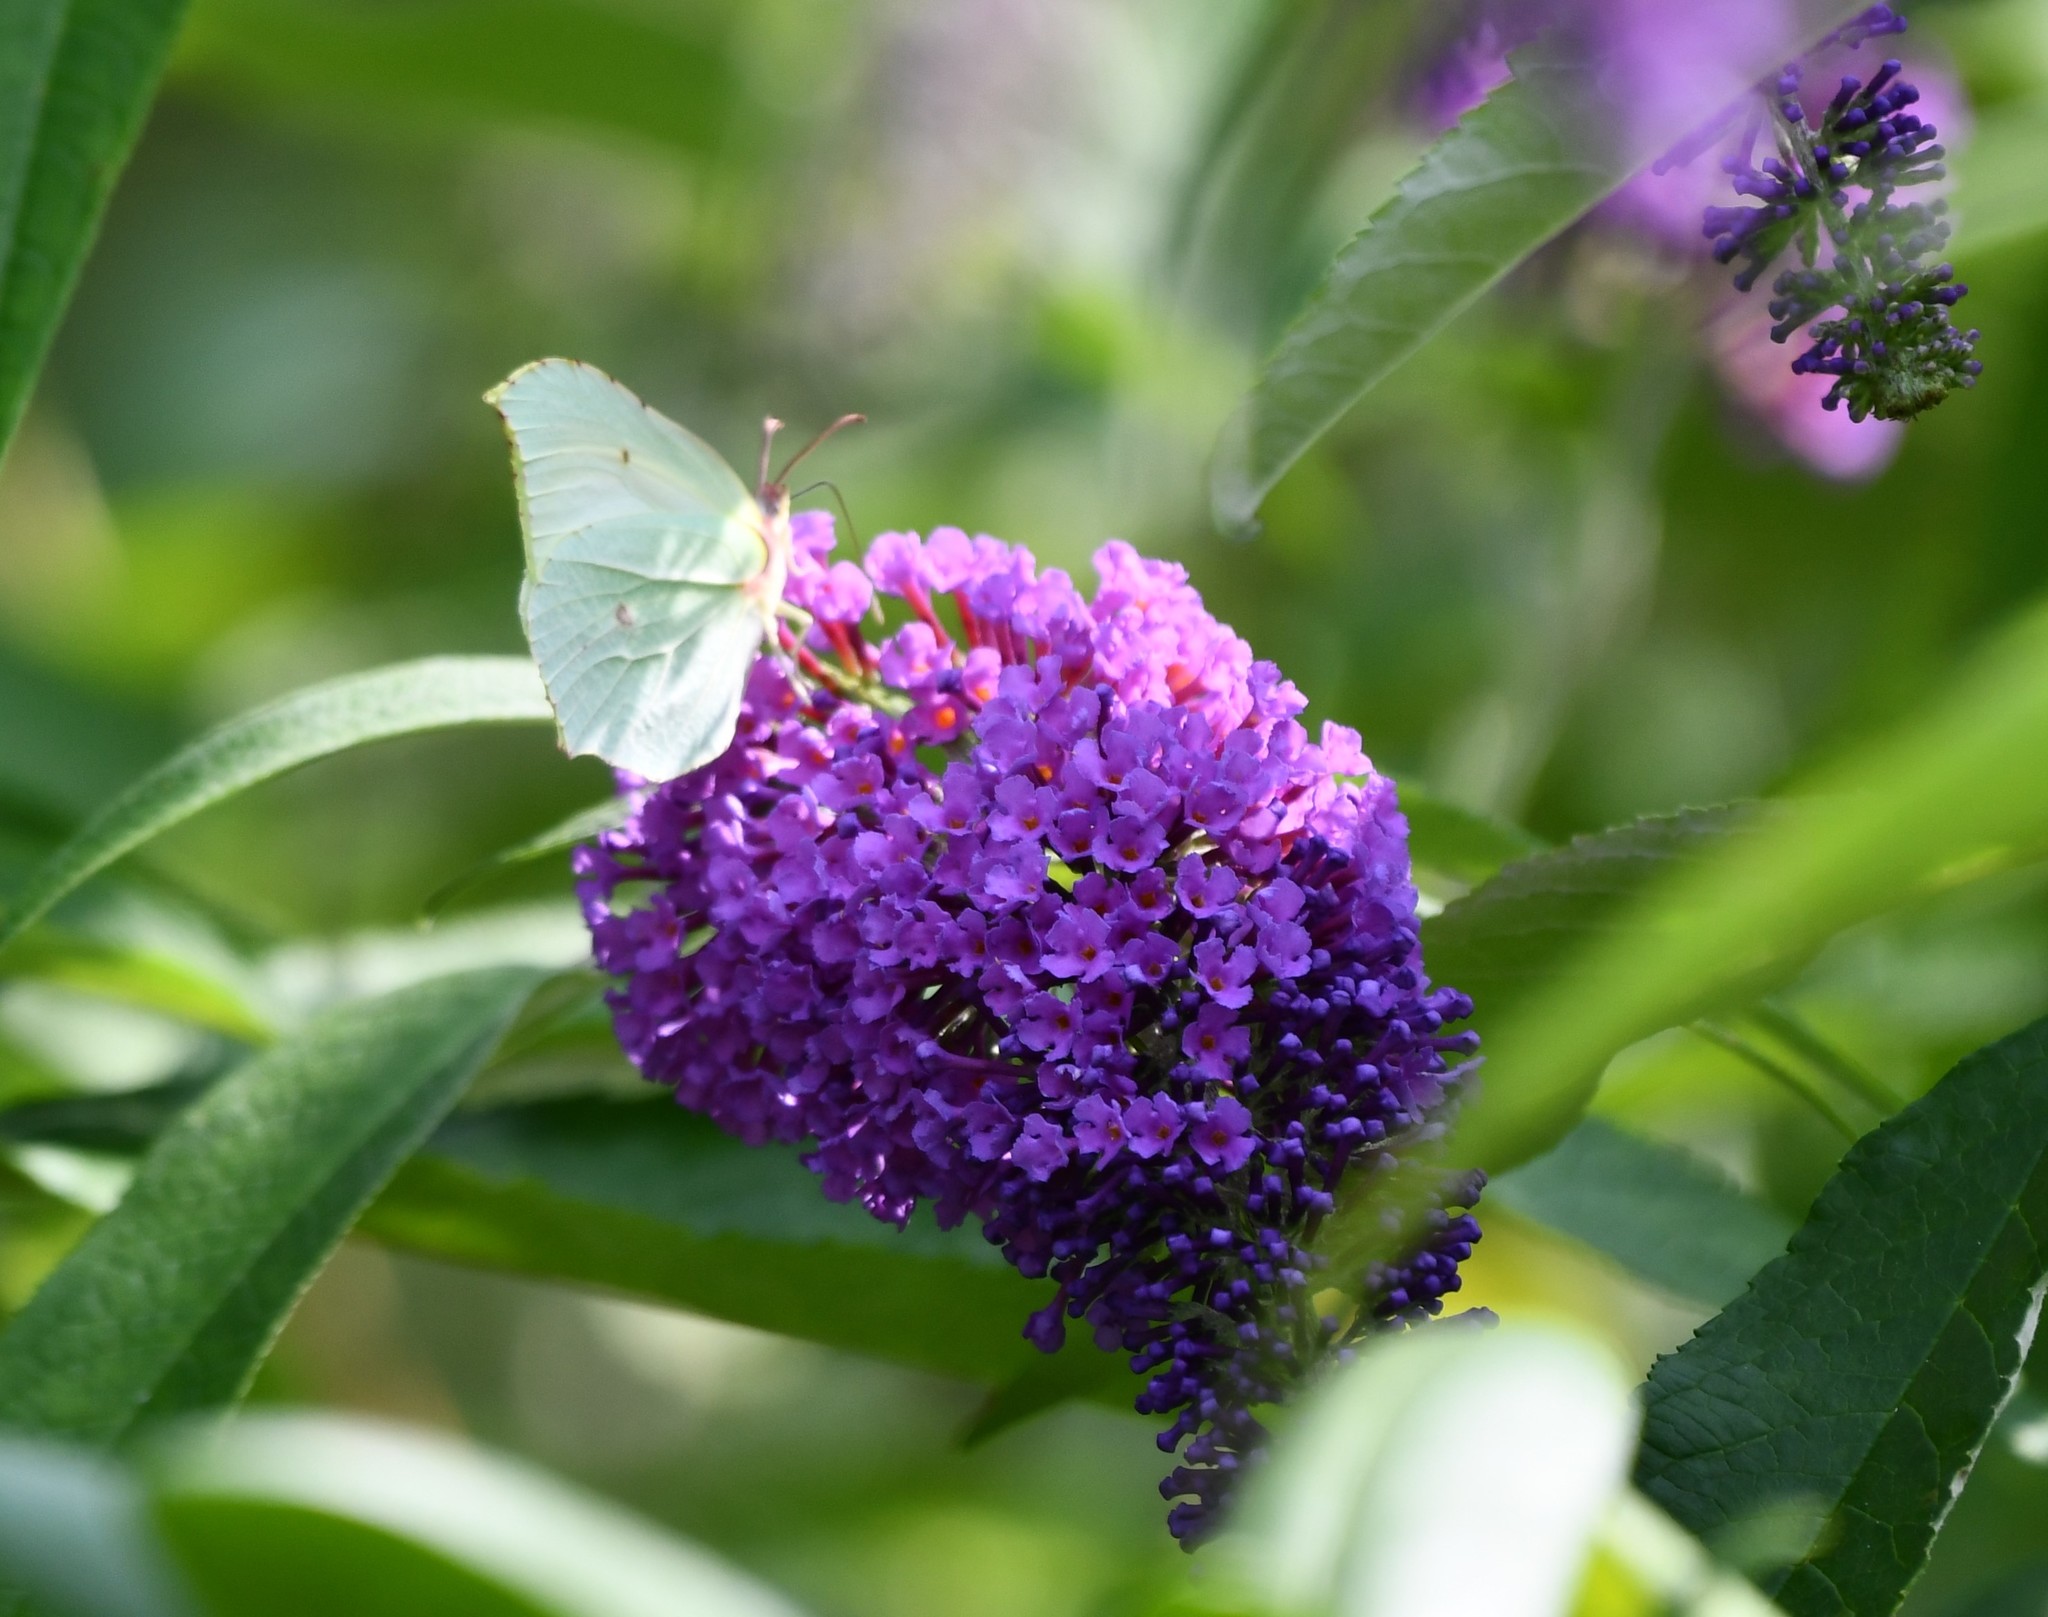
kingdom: Animalia
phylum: Arthropoda
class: Insecta
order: Lepidoptera
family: Pieridae
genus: Gonepteryx
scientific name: Gonepteryx rhamni
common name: Brimstone
